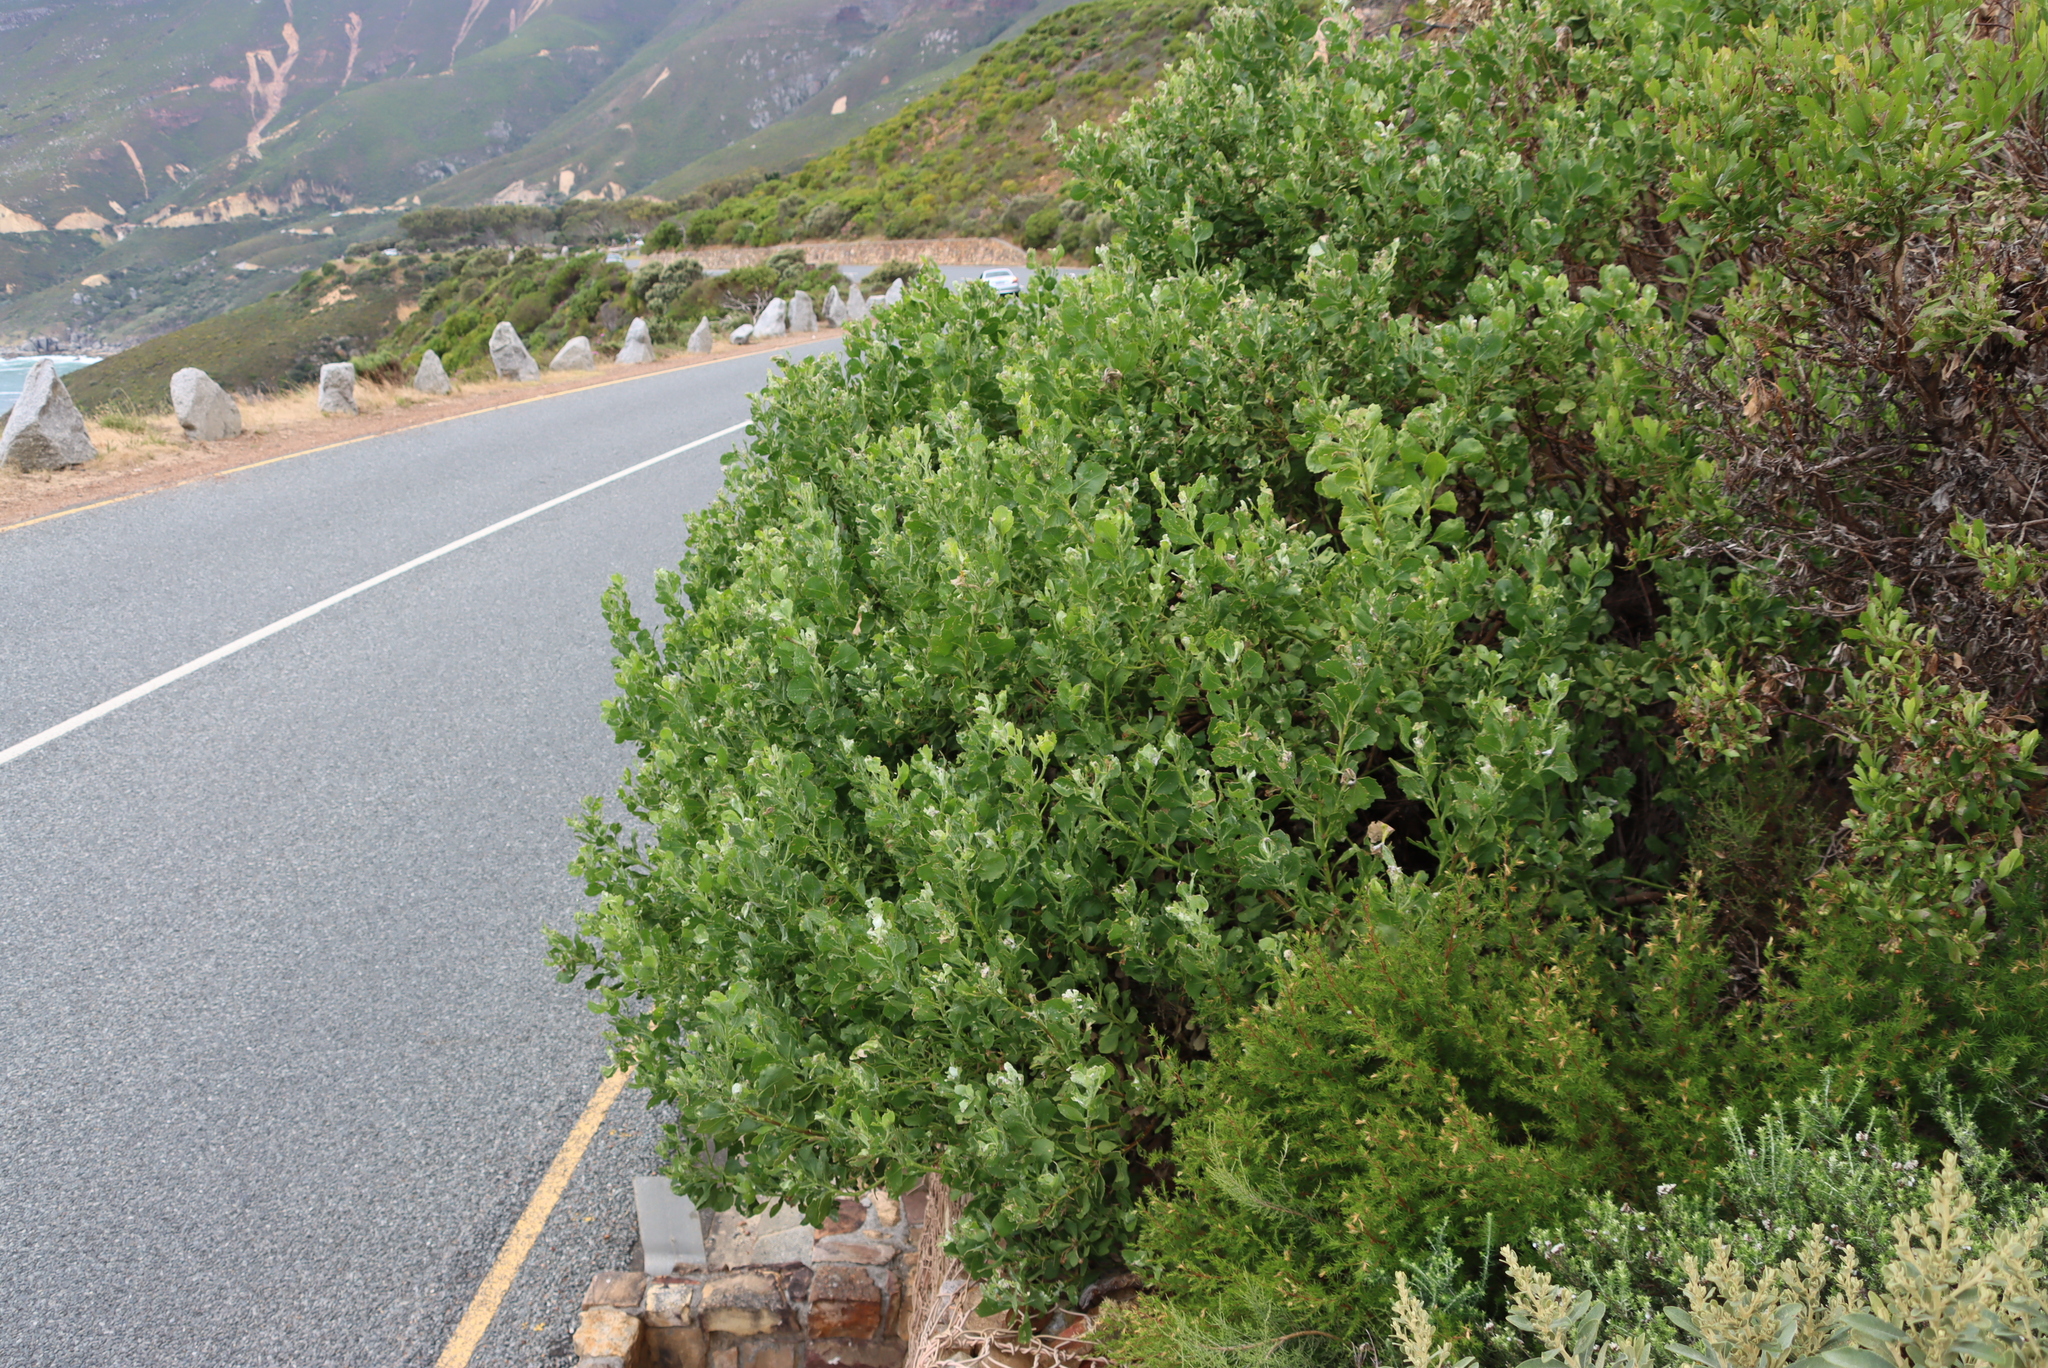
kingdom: Plantae
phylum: Tracheophyta
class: Magnoliopsida
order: Asterales
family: Asteraceae
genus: Osteospermum
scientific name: Osteospermum moniliferum
